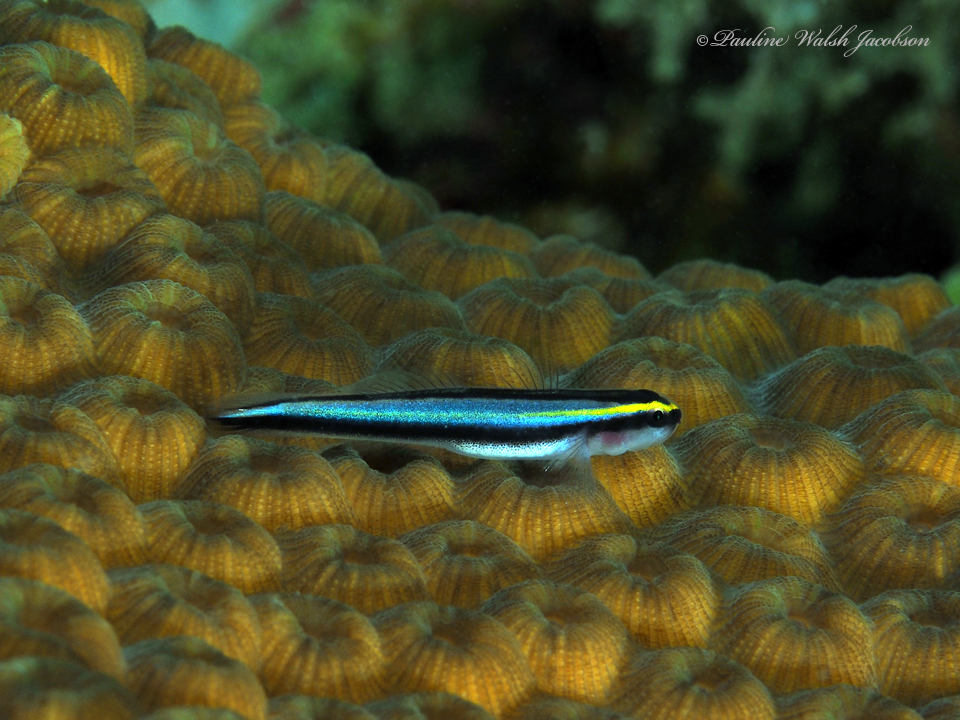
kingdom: Animalia
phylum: Chordata
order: Perciformes
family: Gobiidae
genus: Elacatinus
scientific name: Elacatinus evelynae
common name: Sharknose goby
